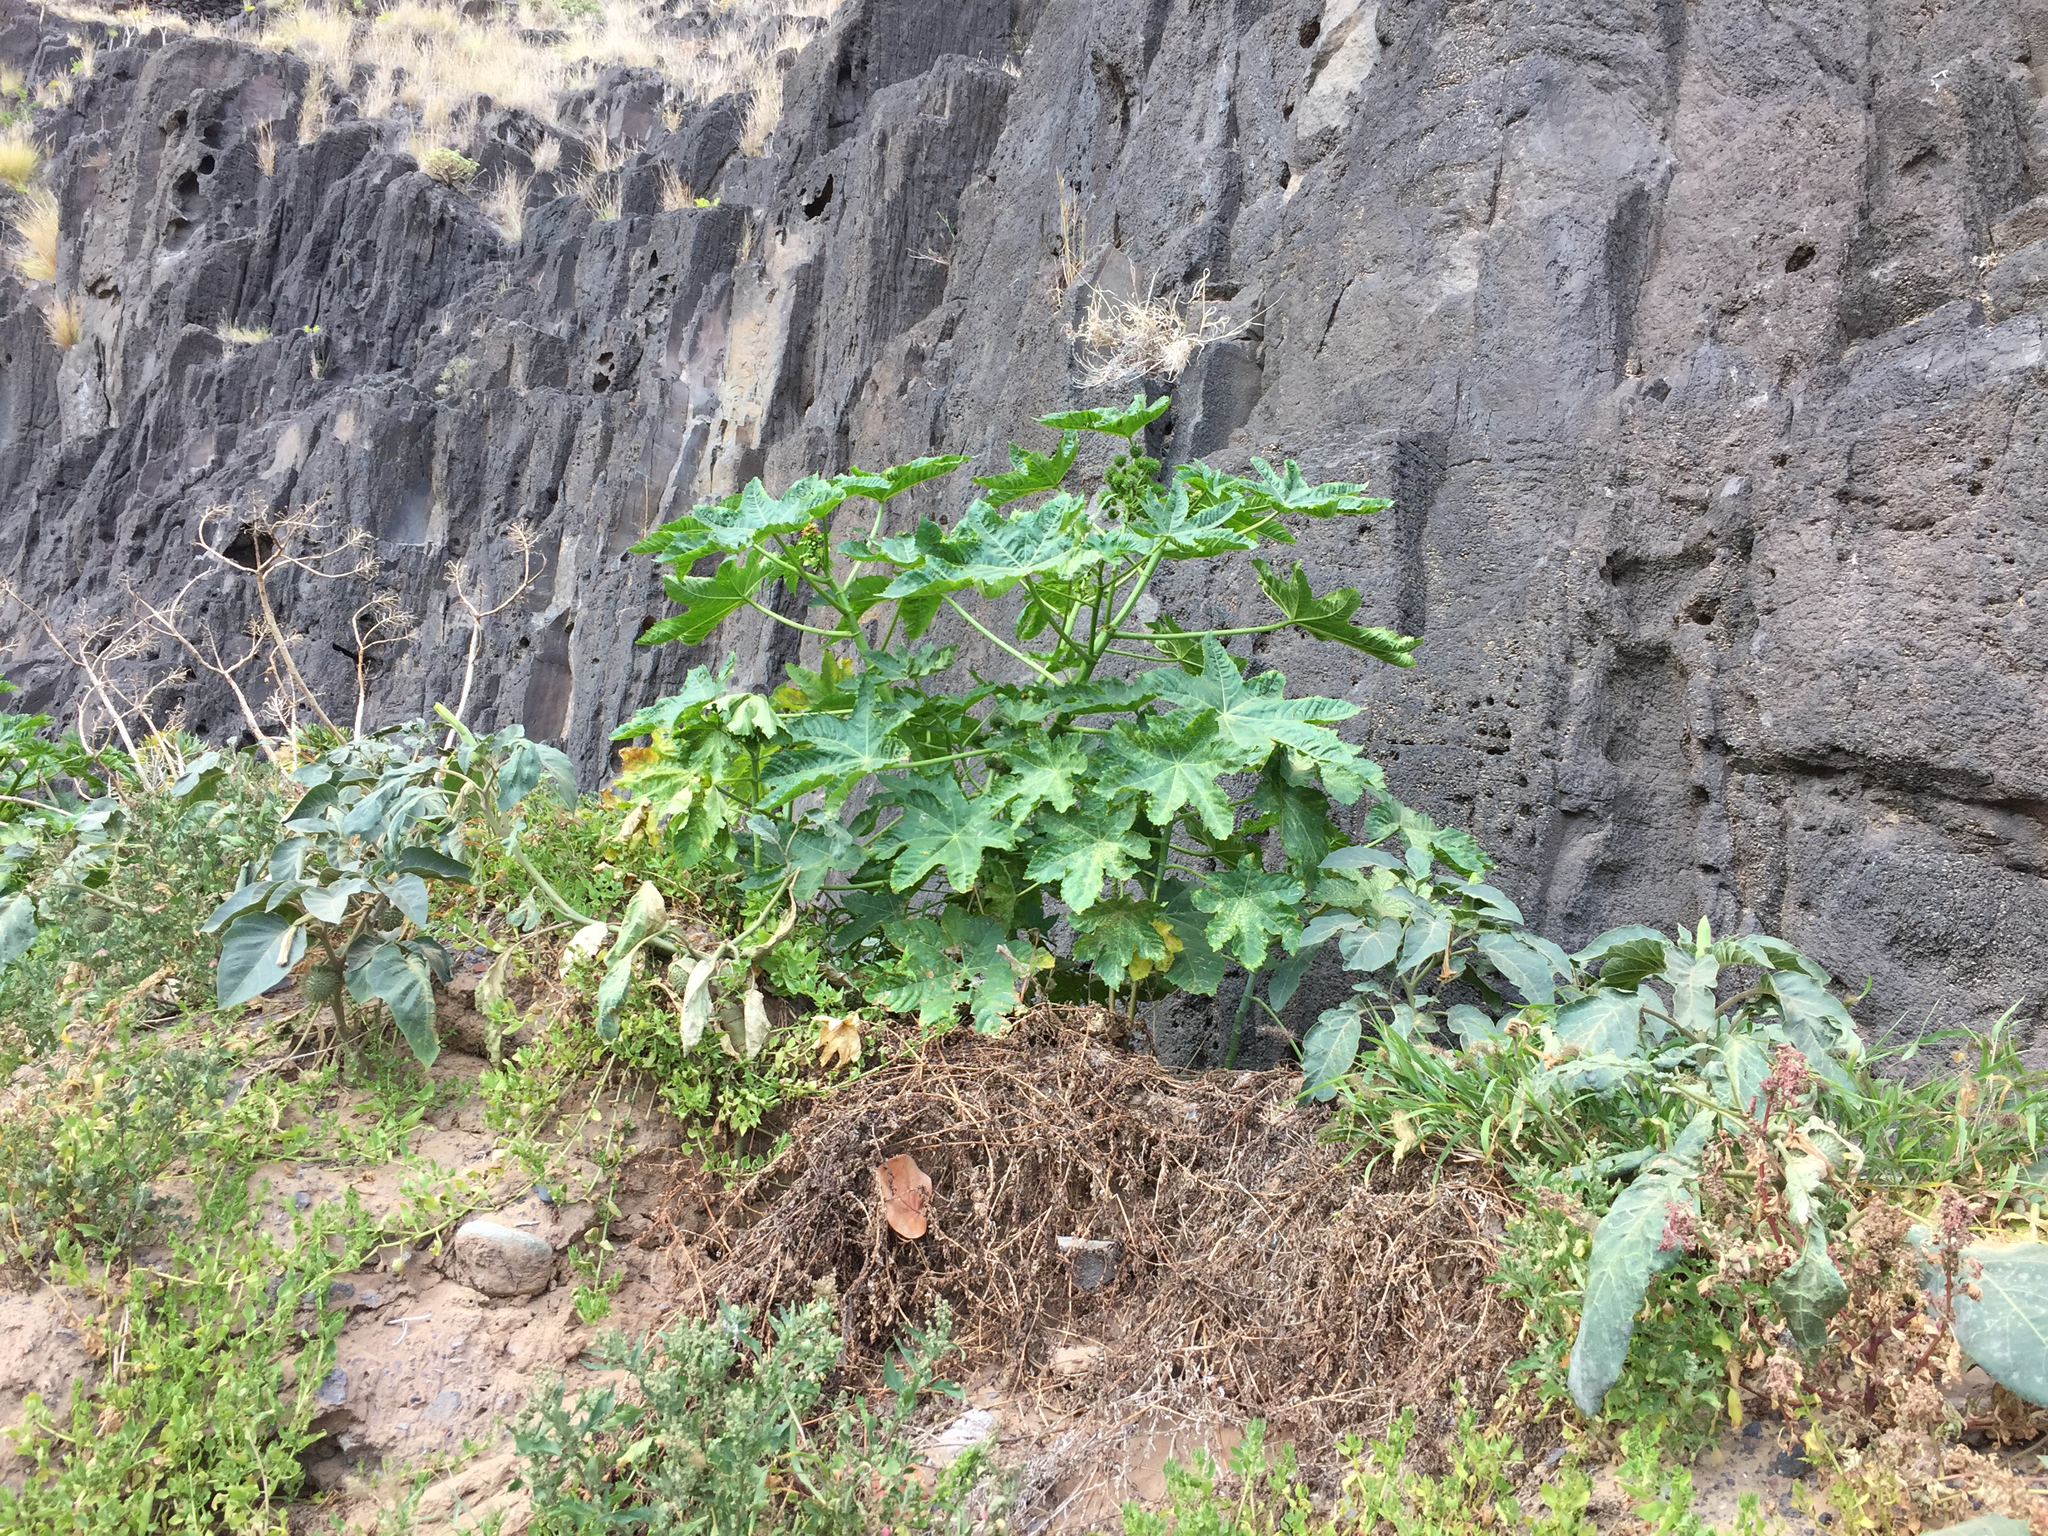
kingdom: Plantae
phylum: Tracheophyta
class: Magnoliopsida
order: Malpighiales
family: Euphorbiaceae
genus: Ricinus
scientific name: Ricinus communis
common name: Castor-oil-plant
